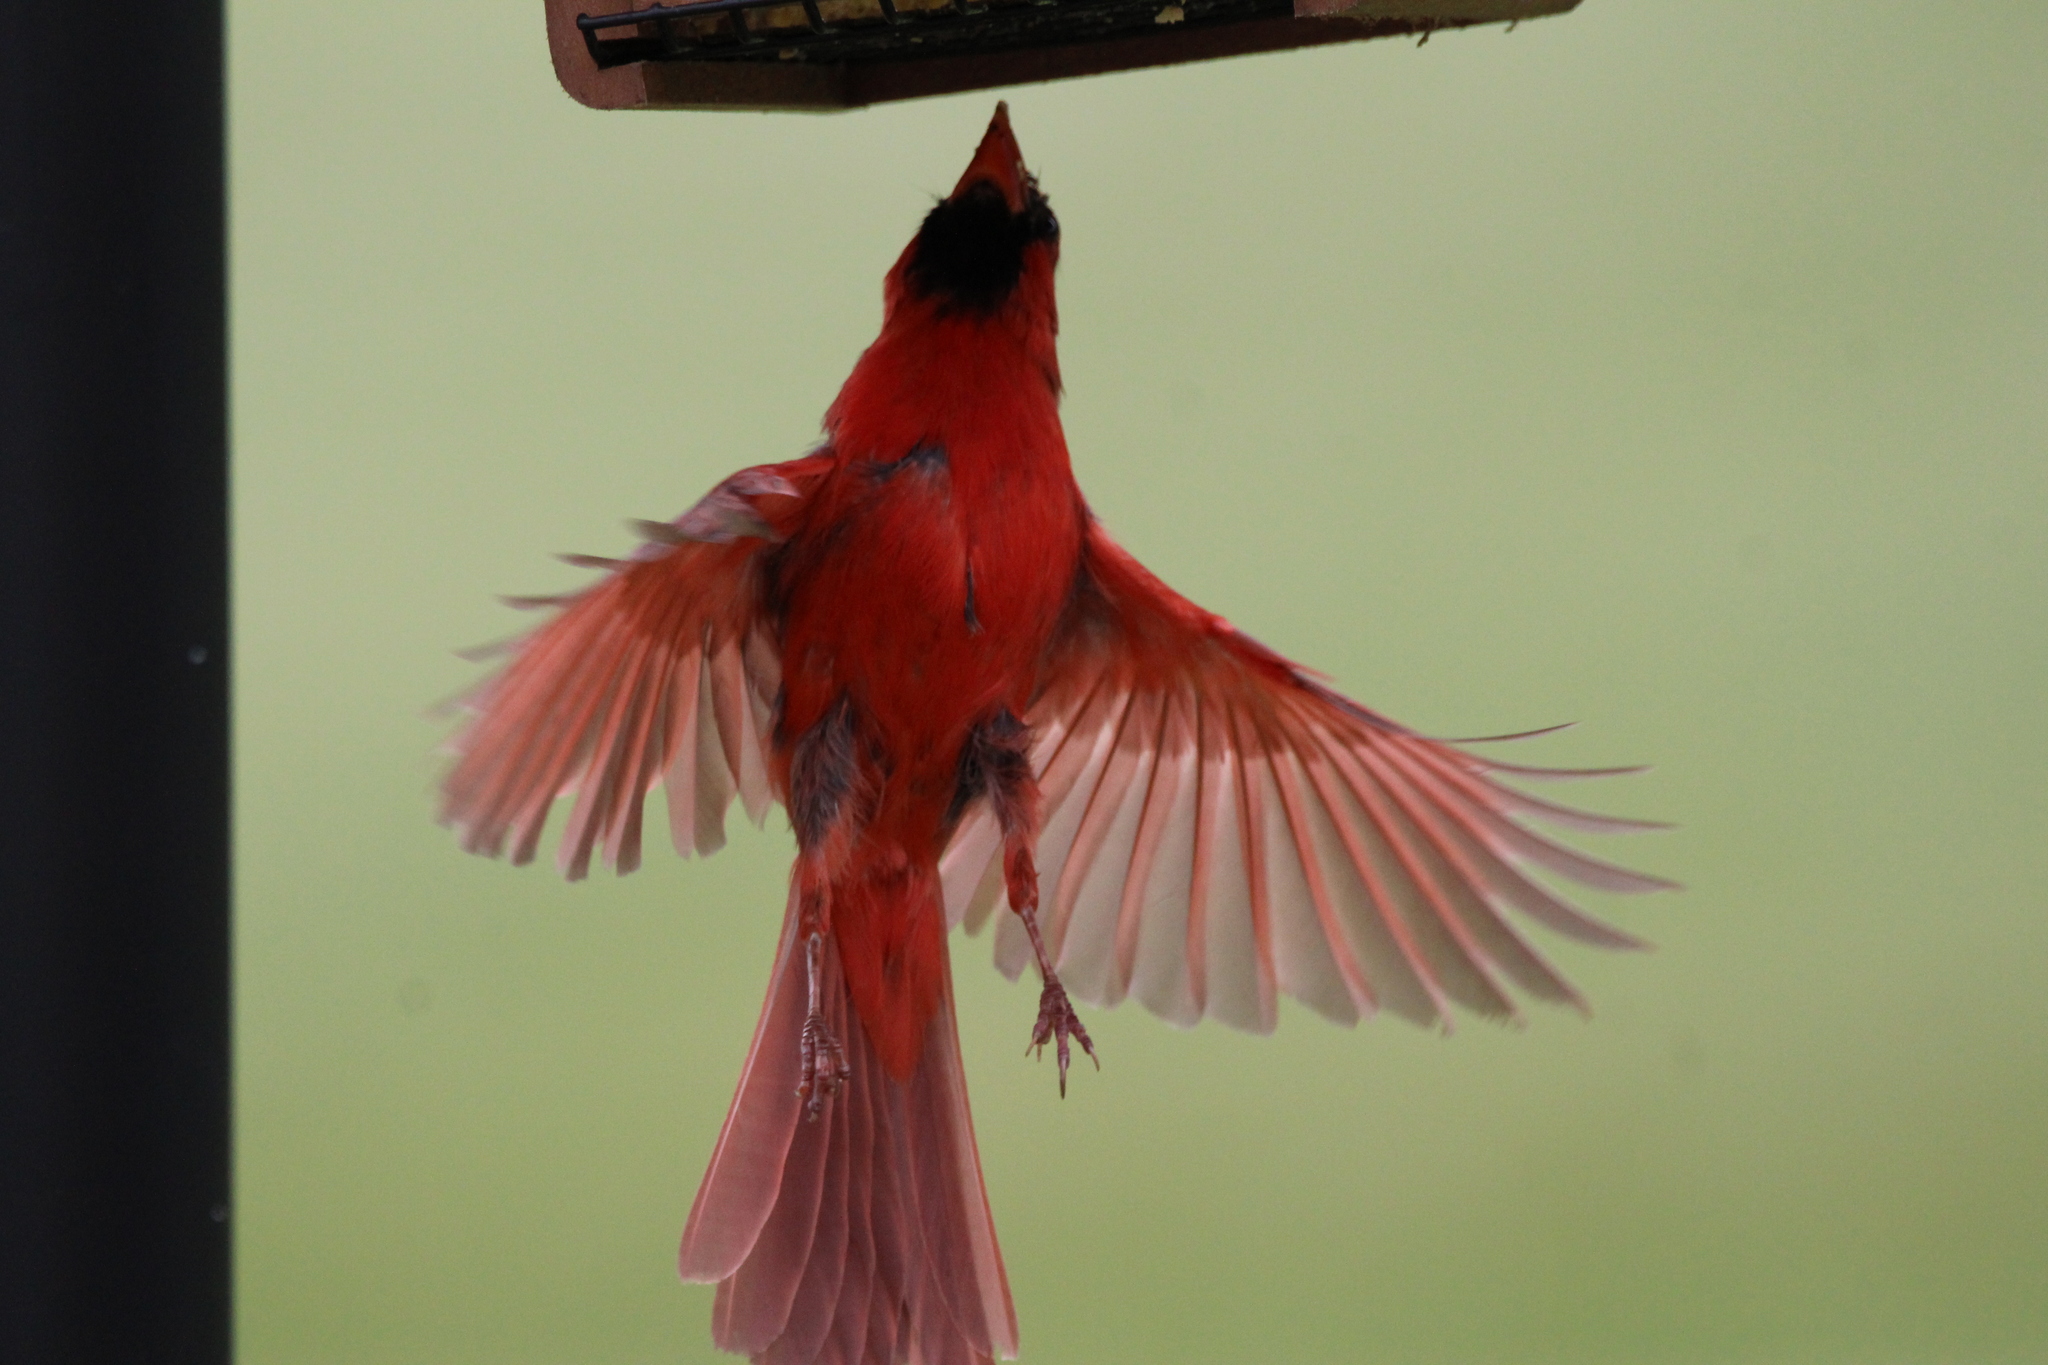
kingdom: Animalia
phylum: Chordata
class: Aves
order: Passeriformes
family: Cardinalidae
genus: Cardinalis
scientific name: Cardinalis cardinalis
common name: Northern cardinal
